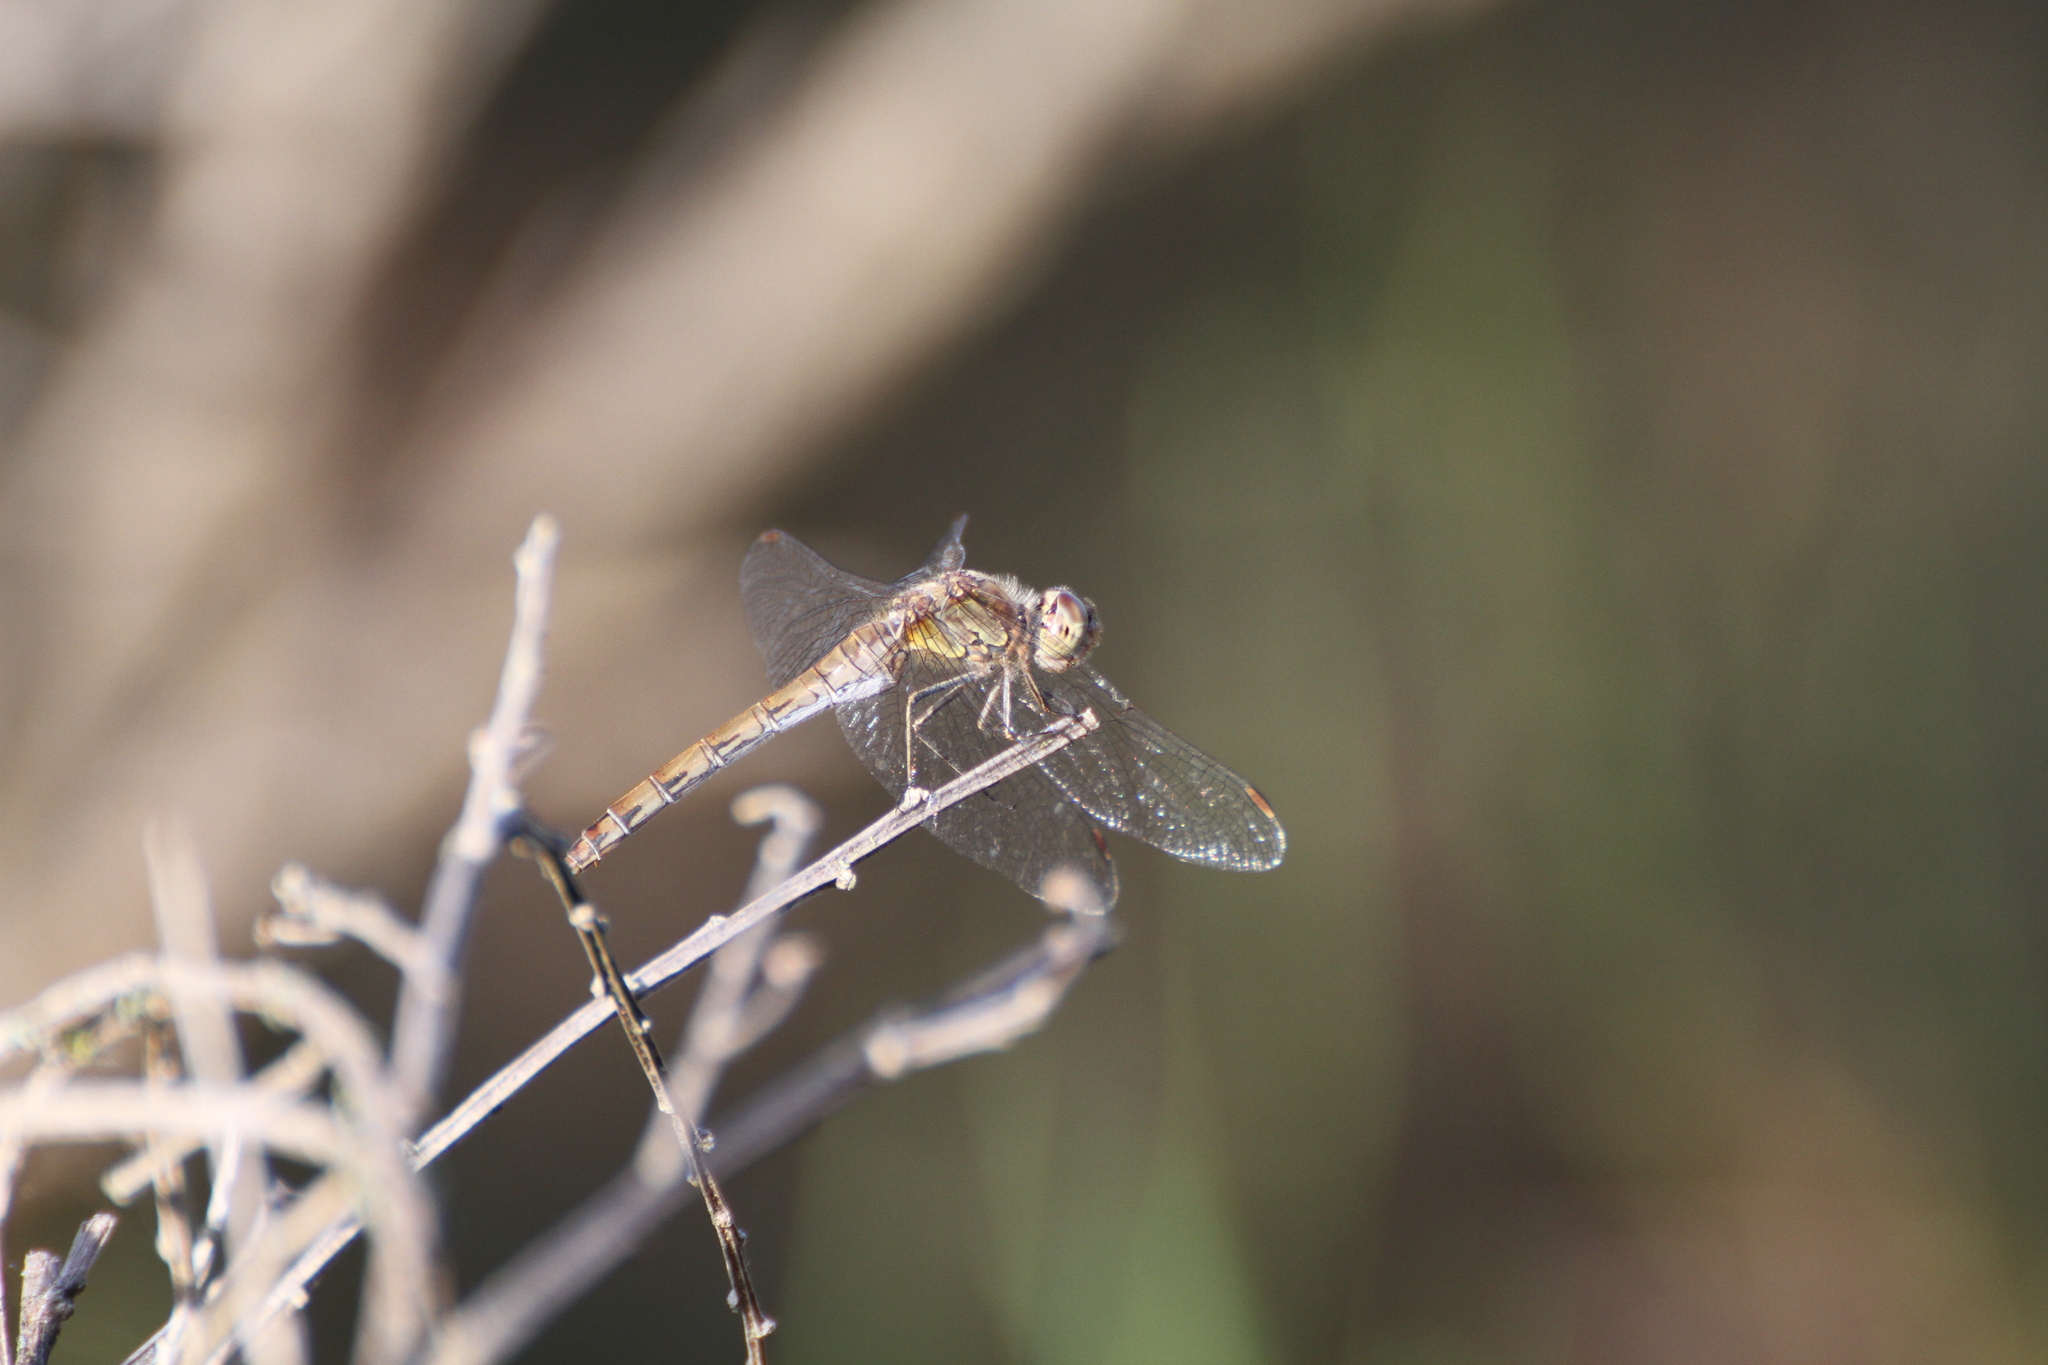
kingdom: Animalia
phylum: Arthropoda
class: Insecta
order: Odonata
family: Libellulidae
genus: Sympetrum
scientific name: Sympetrum striolatum
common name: Common darter
